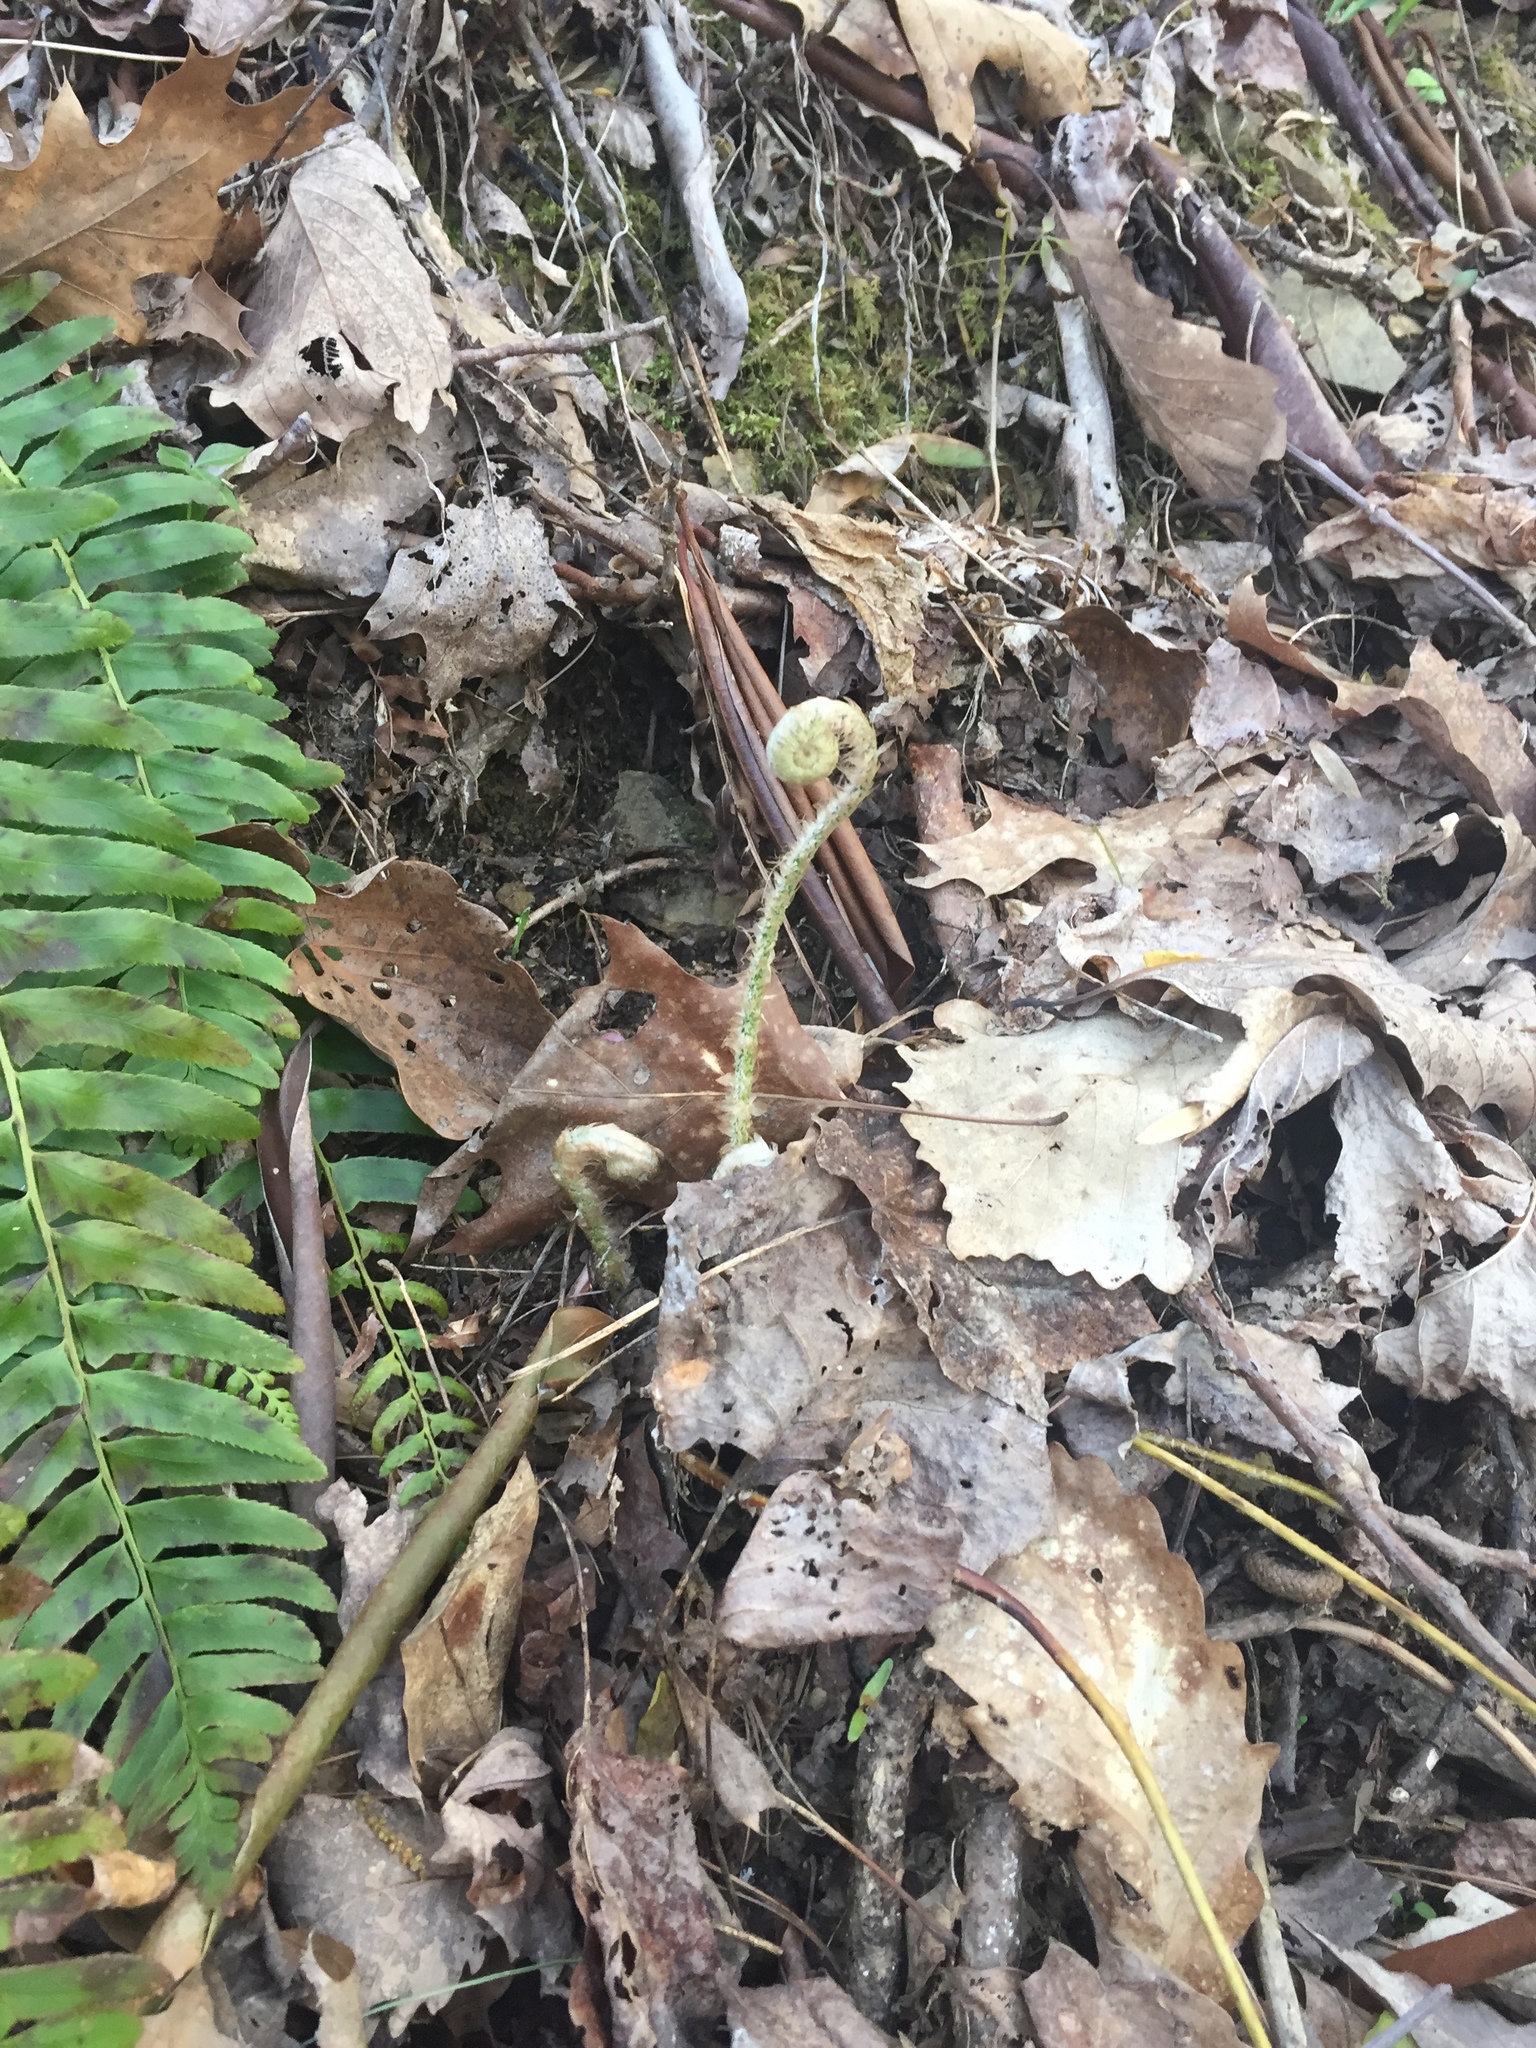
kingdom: Plantae
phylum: Tracheophyta
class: Polypodiopsida
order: Polypodiales
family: Dryopteridaceae
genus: Polystichum
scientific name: Polystichum acrostichoides
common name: Christmas fern
